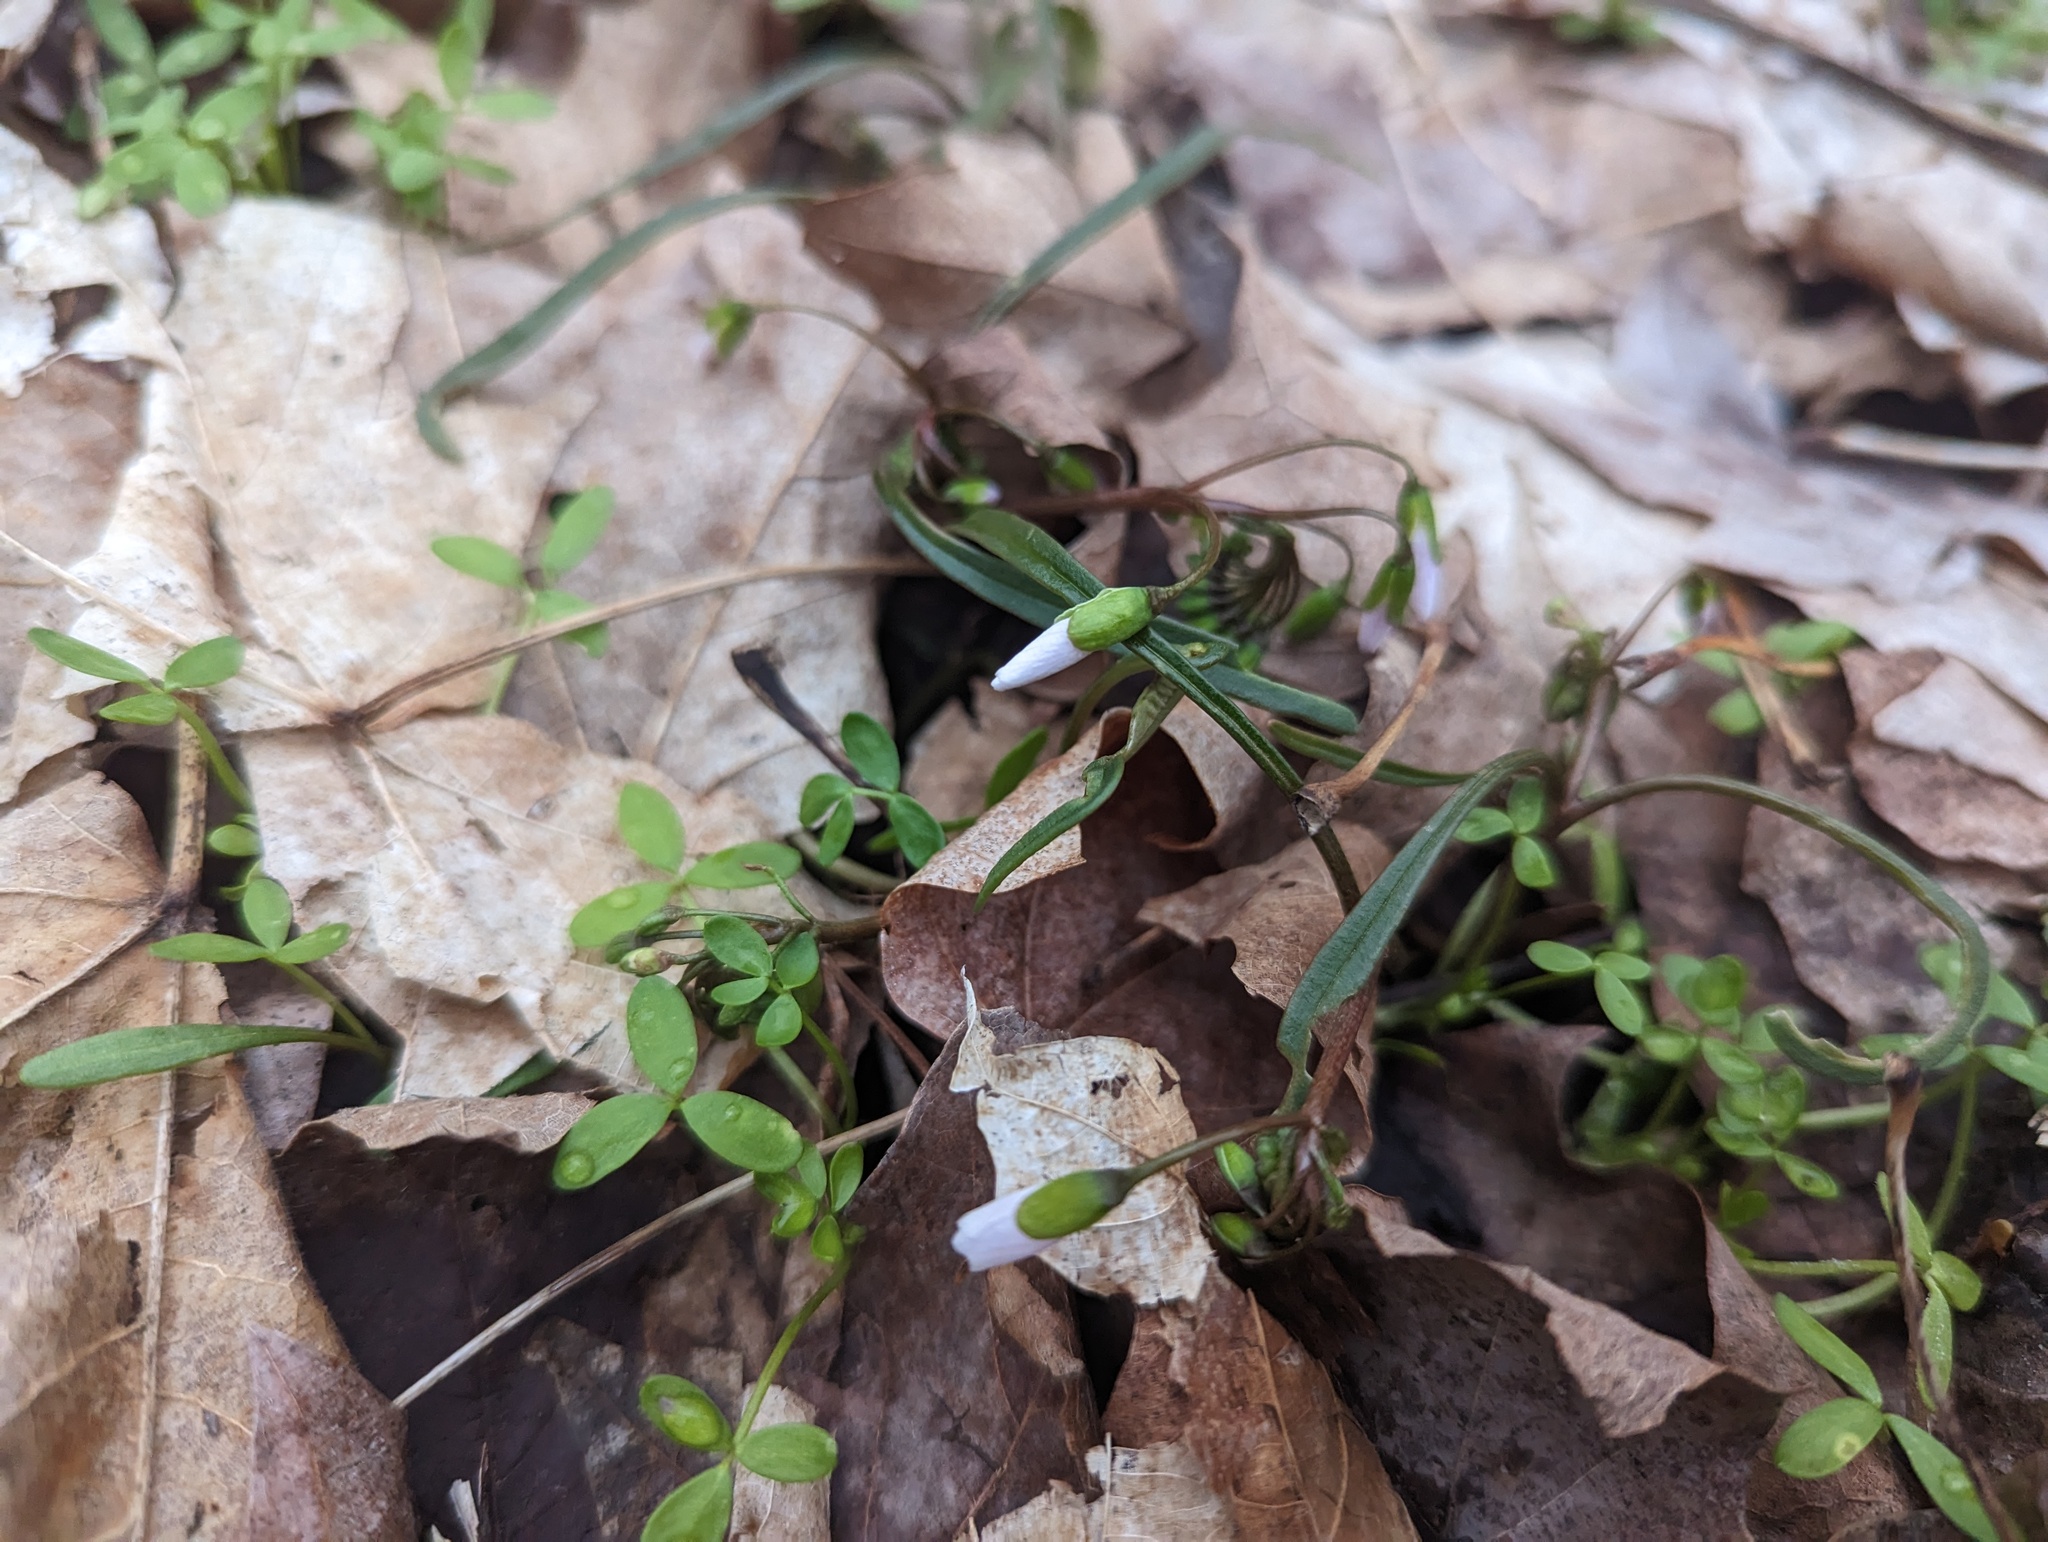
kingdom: Plantae
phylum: Tracheophyta
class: Magnoliopsida
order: Caryophyllales
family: Montiaceae
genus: Claytonia
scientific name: Claytonia virginica
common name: Virginia springbeauty
